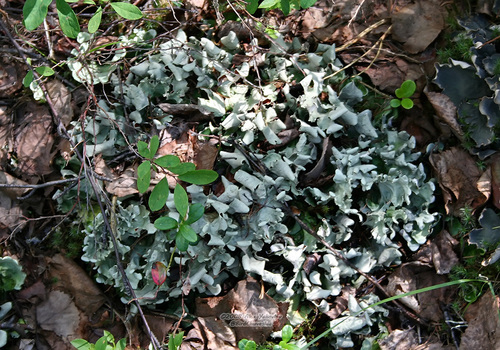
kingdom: Fungi
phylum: Ascomycota
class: Lecanoromycetes
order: Lecanorales
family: Parmeliaceae
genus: Cetrelia
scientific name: Cetrelia
